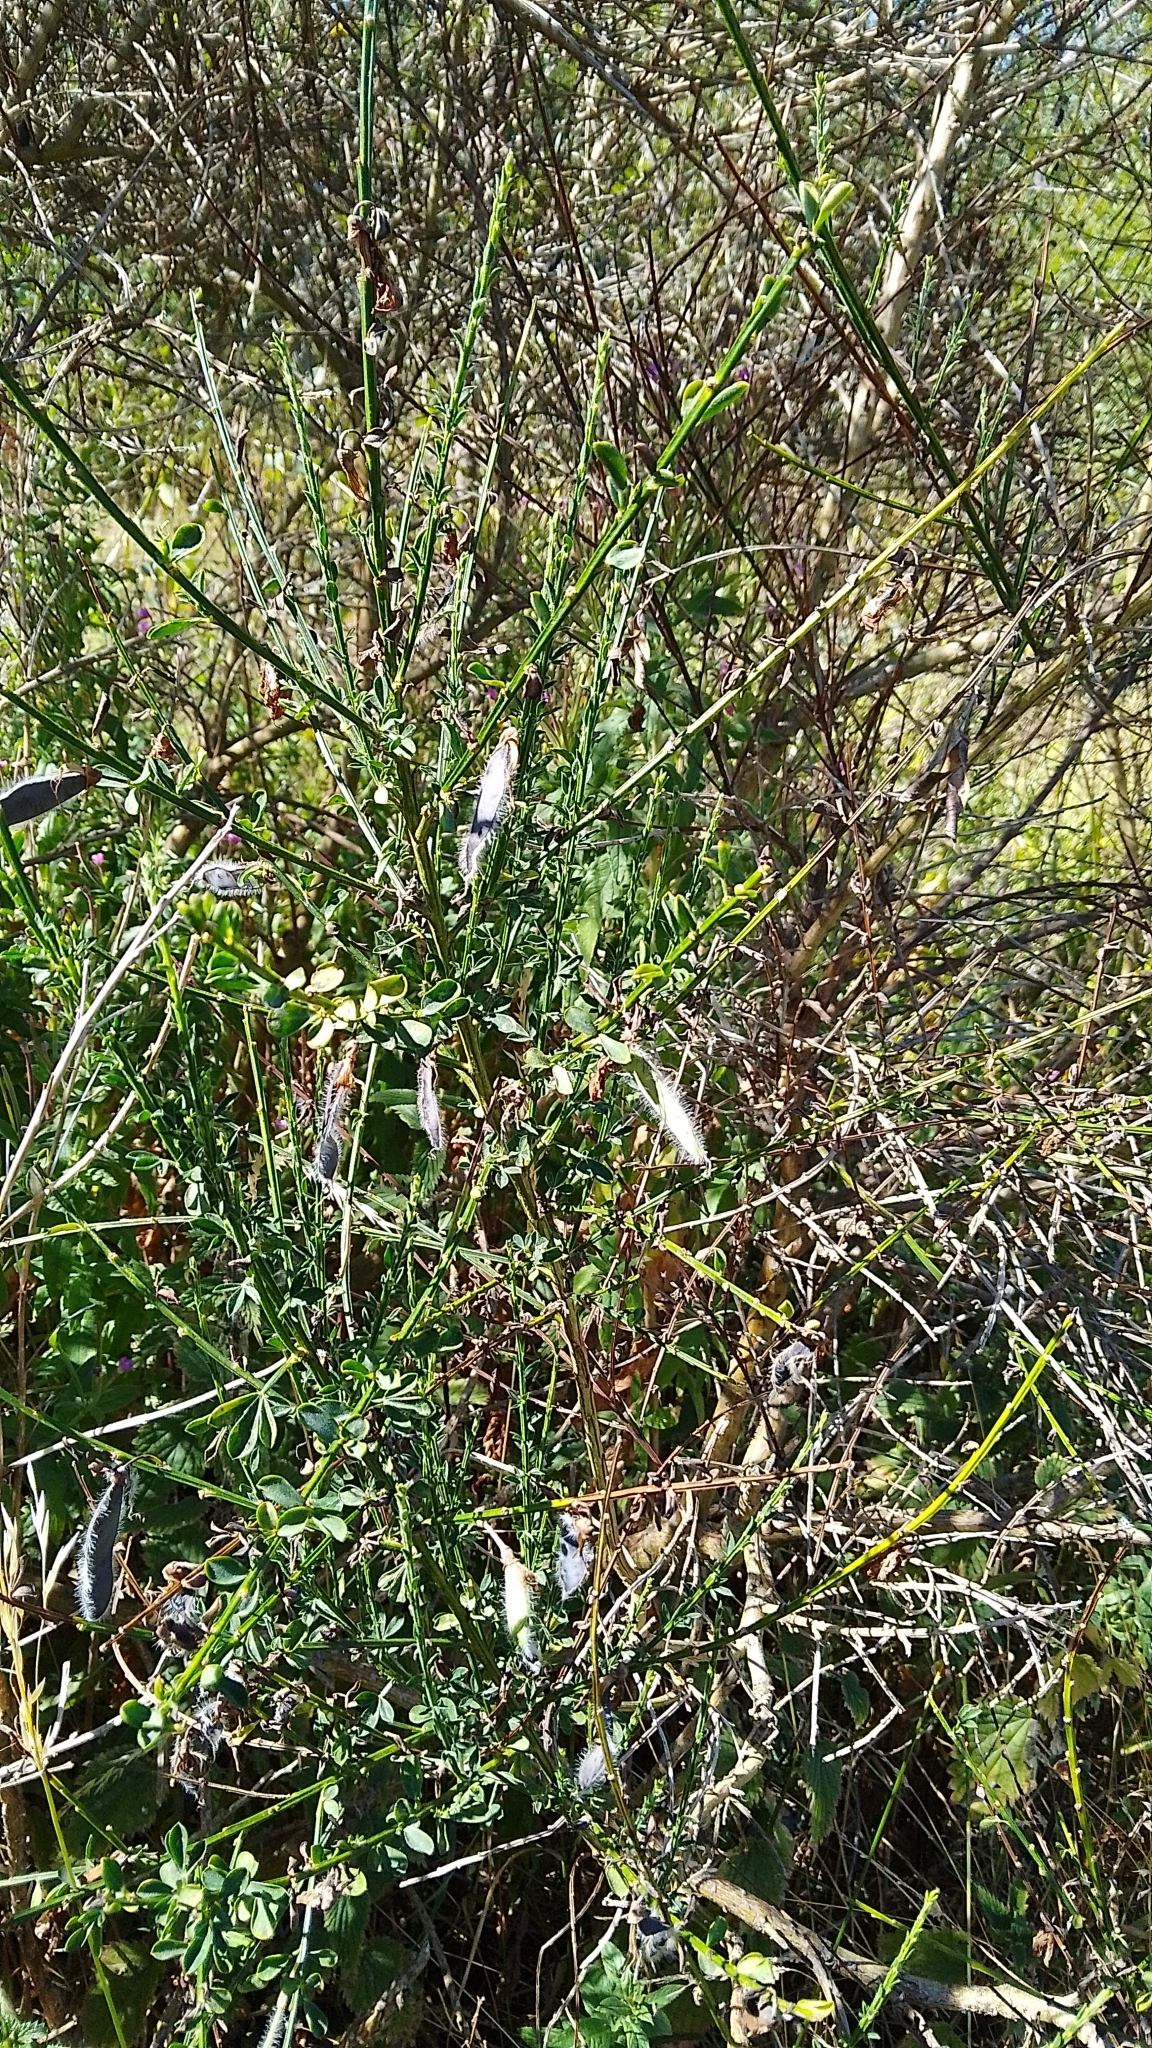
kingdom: Plantae
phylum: Tracheophyta
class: Magnoliopsida
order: Fabales
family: Fabaceae
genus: Cytisus
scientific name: Cytisus scoparius
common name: Scotch broom
